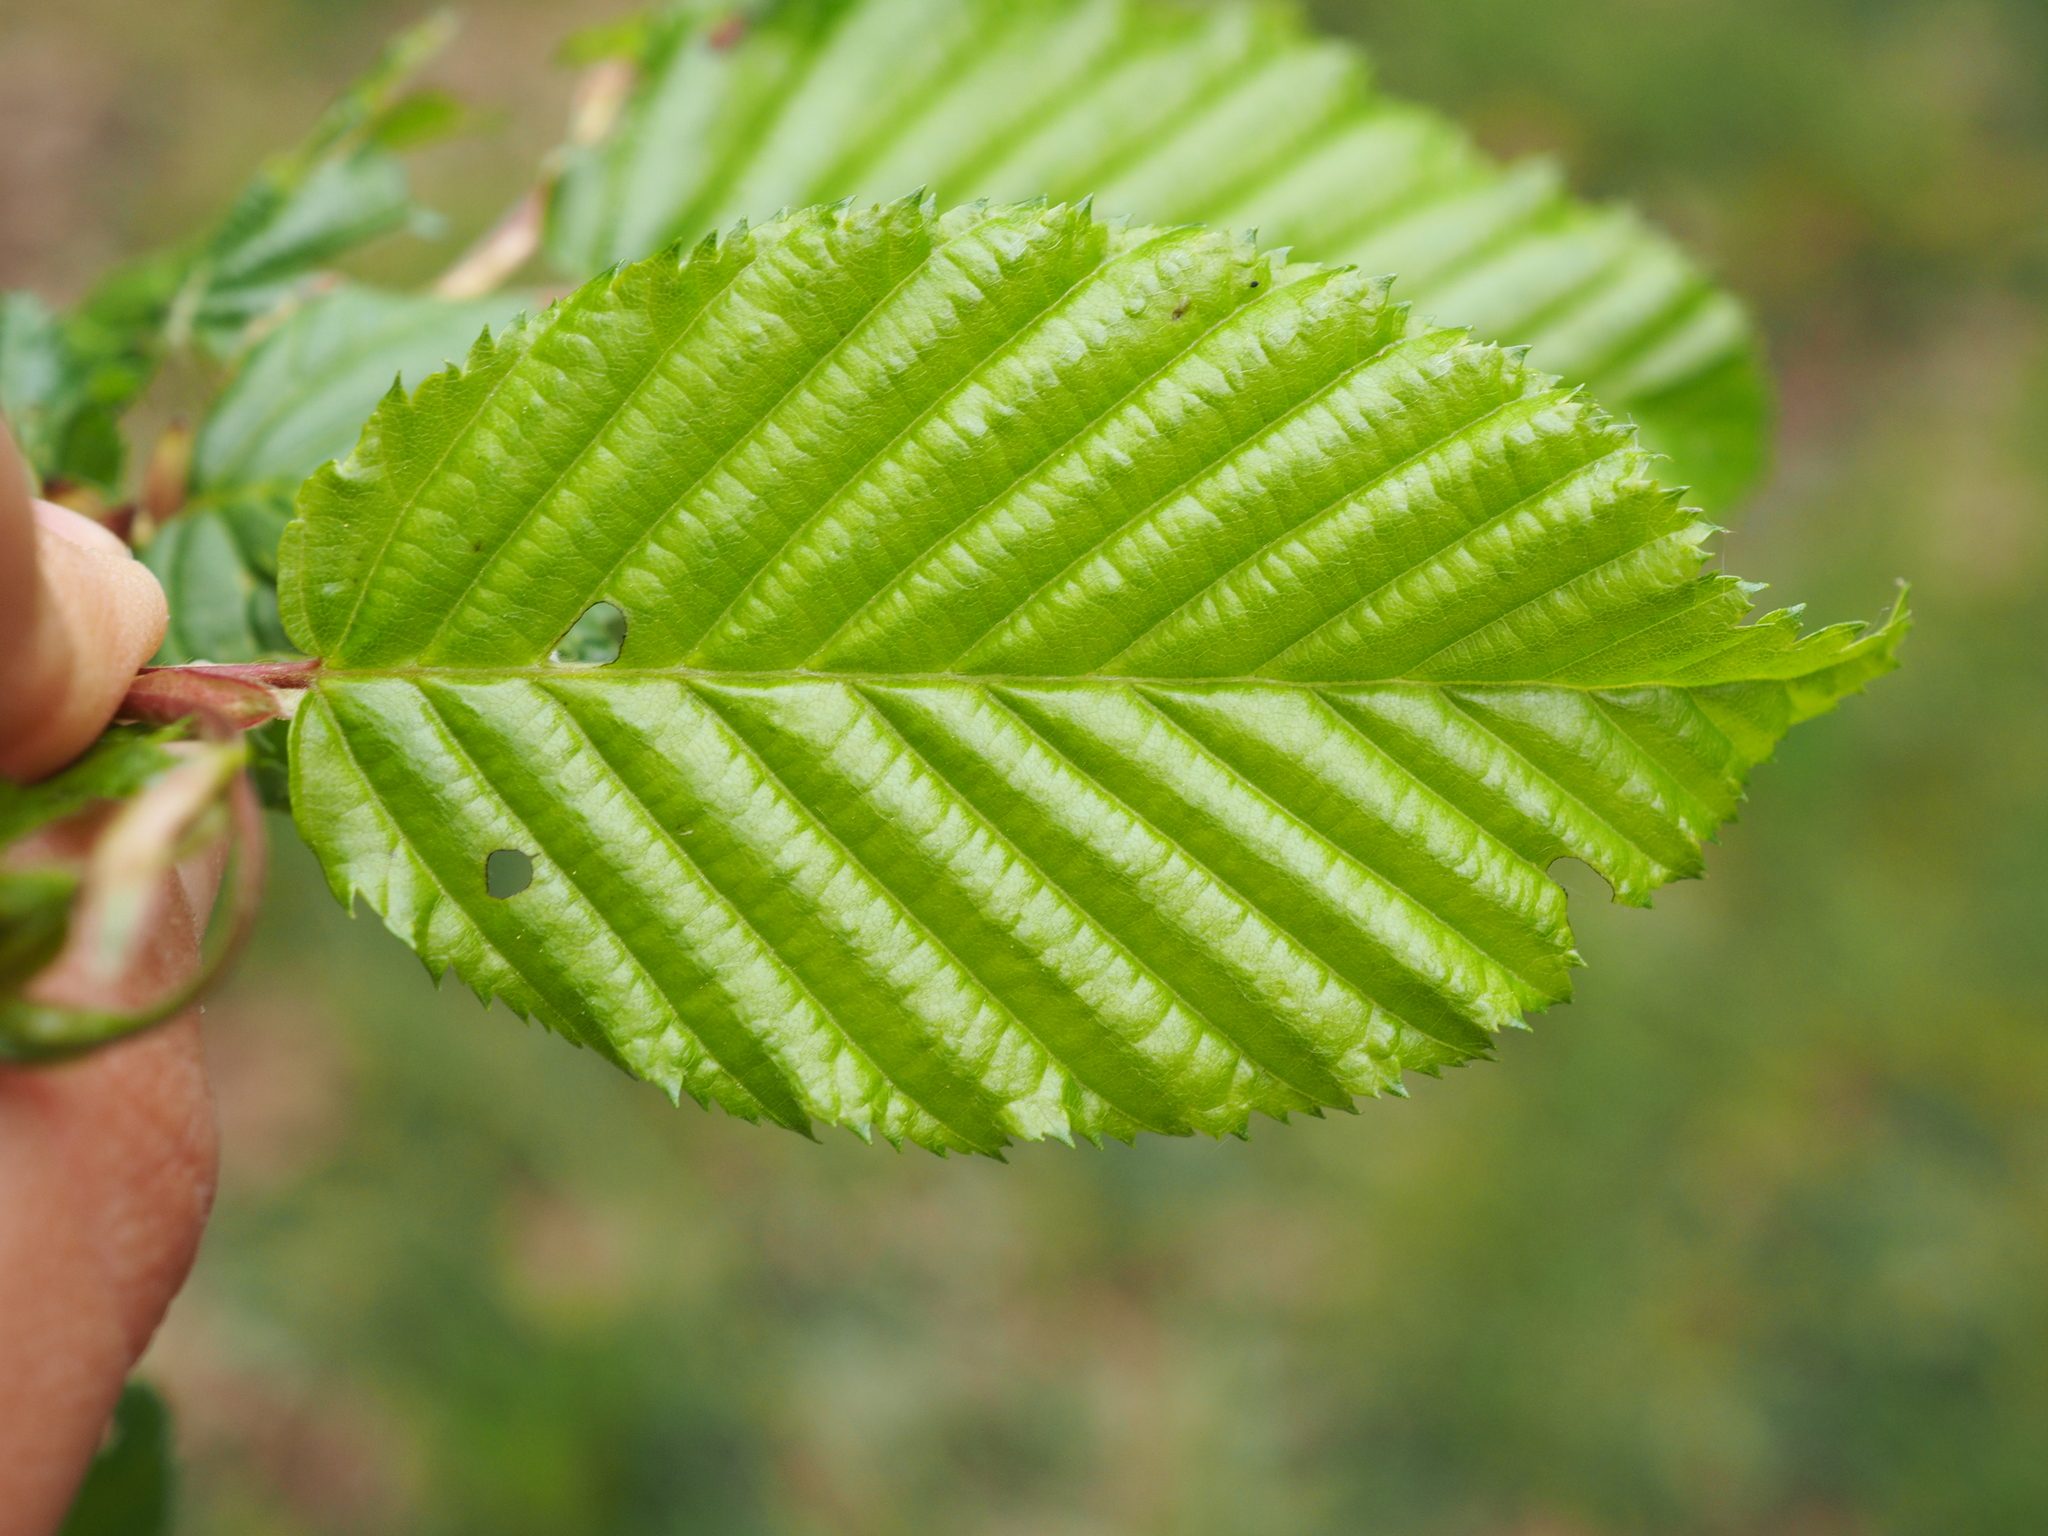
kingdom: Plantae
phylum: Tracheophyta
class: Magnoliopsida
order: Fagales
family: Betulaceae
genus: Carpinus
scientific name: Carpinus betulus
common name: Hornbeam
